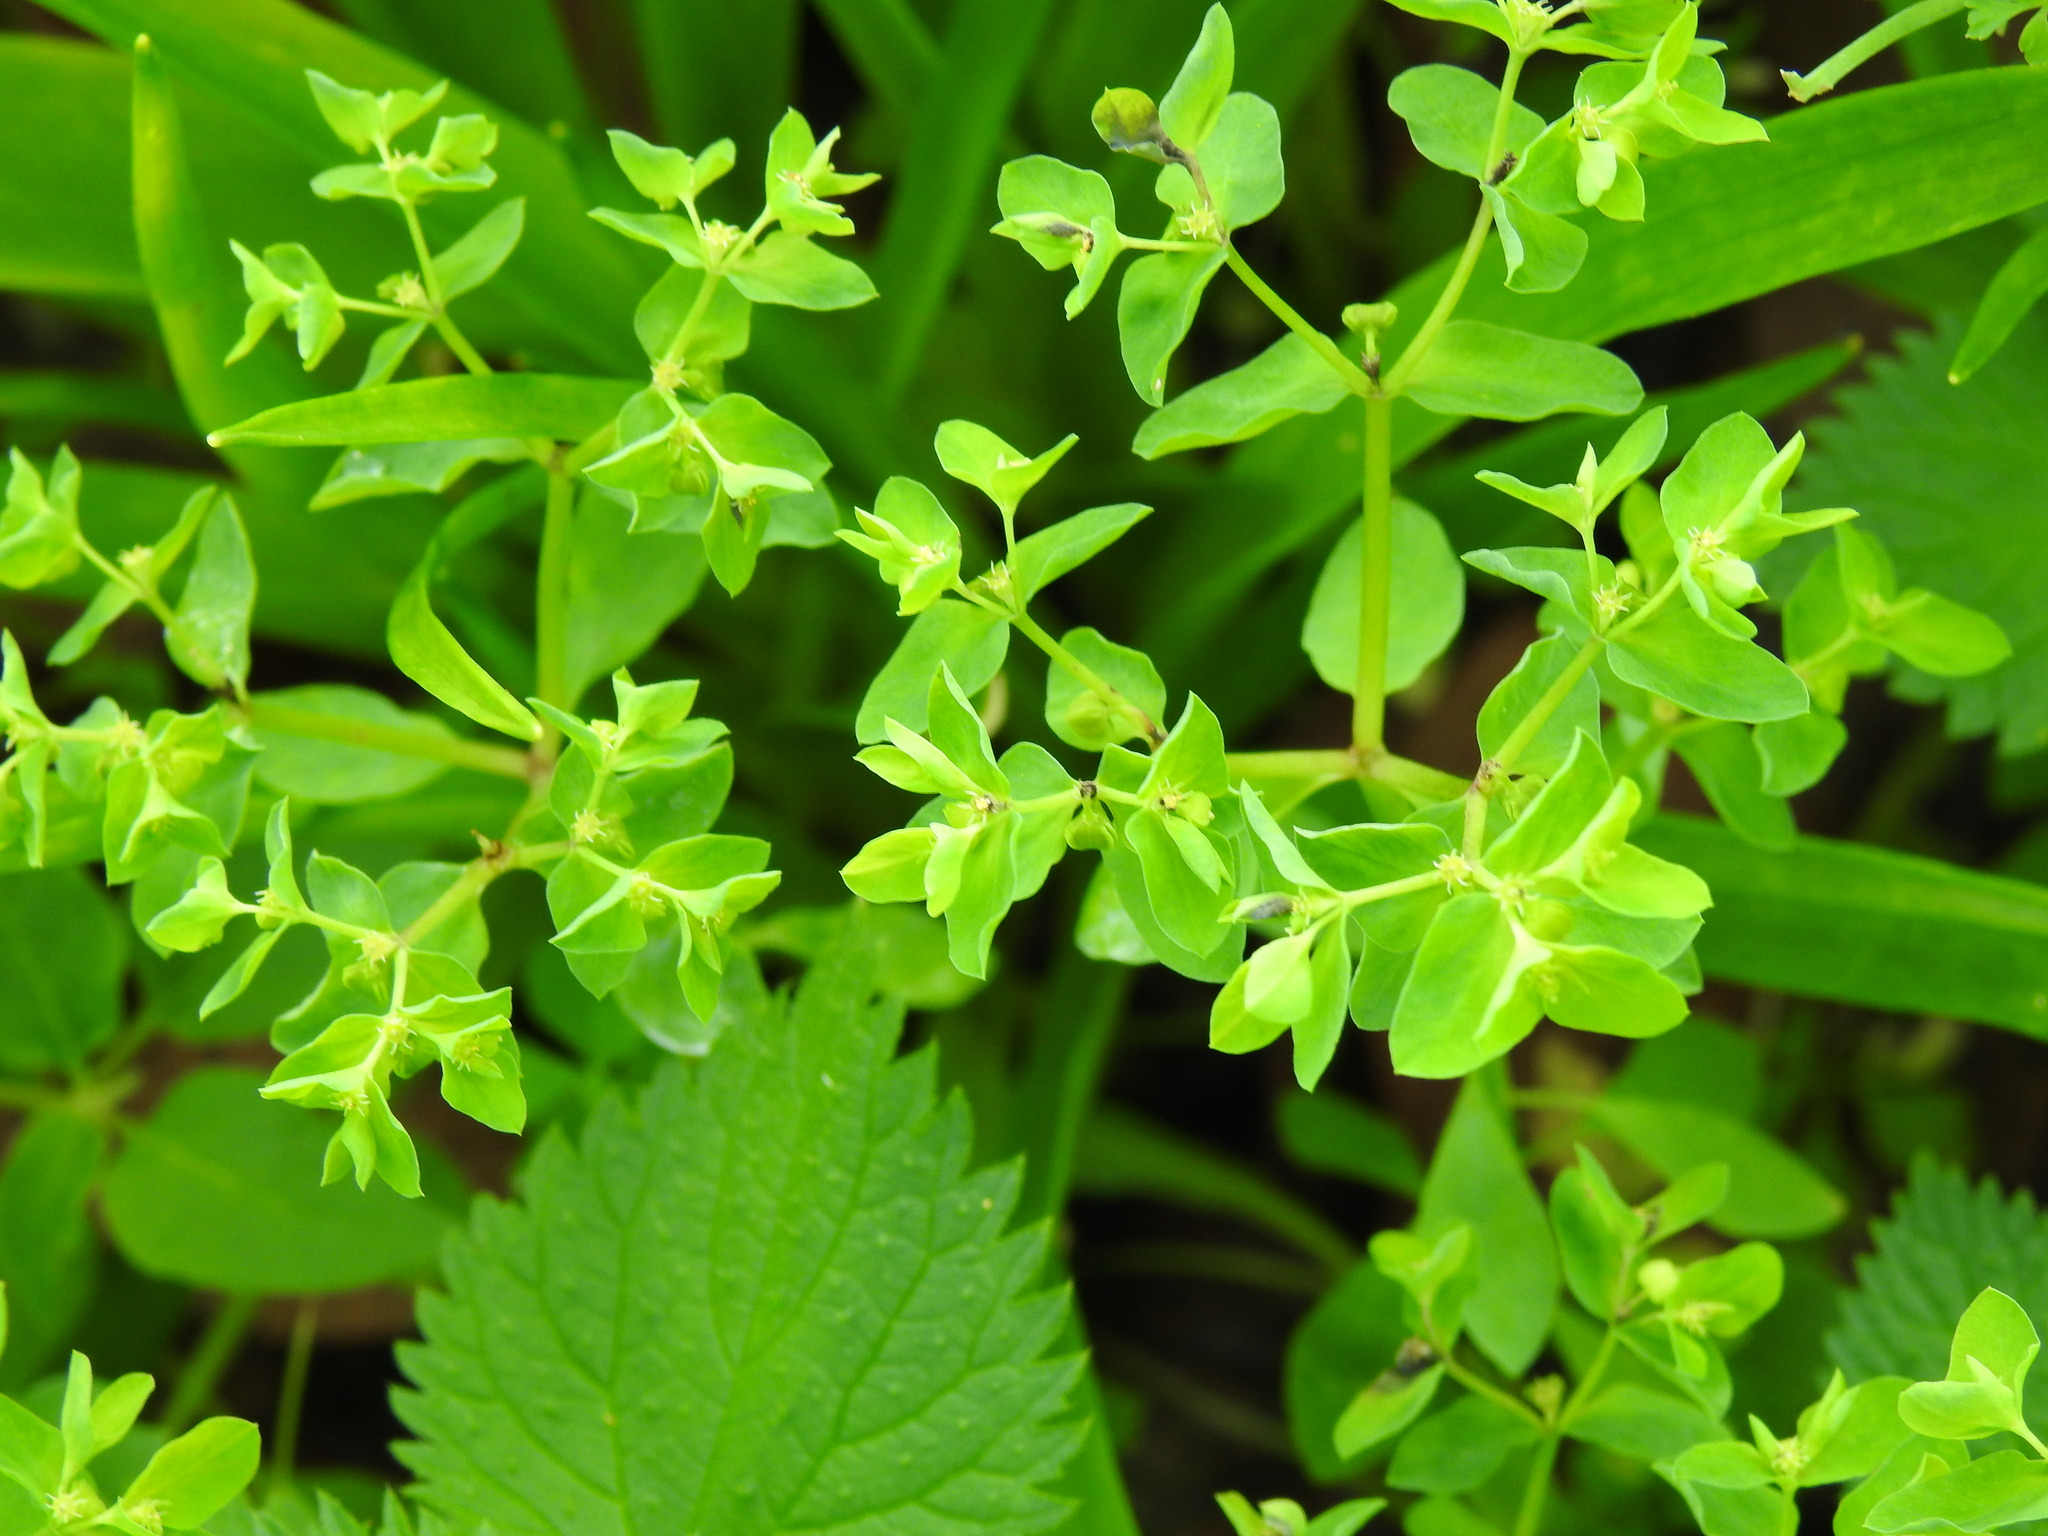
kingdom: Plantae
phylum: Tracheophyta
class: Magnoliopsida
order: Malpighiales
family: Euphorbiaceae
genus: Euphorbia
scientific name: Euphorbia peplus
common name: Petty spurge
